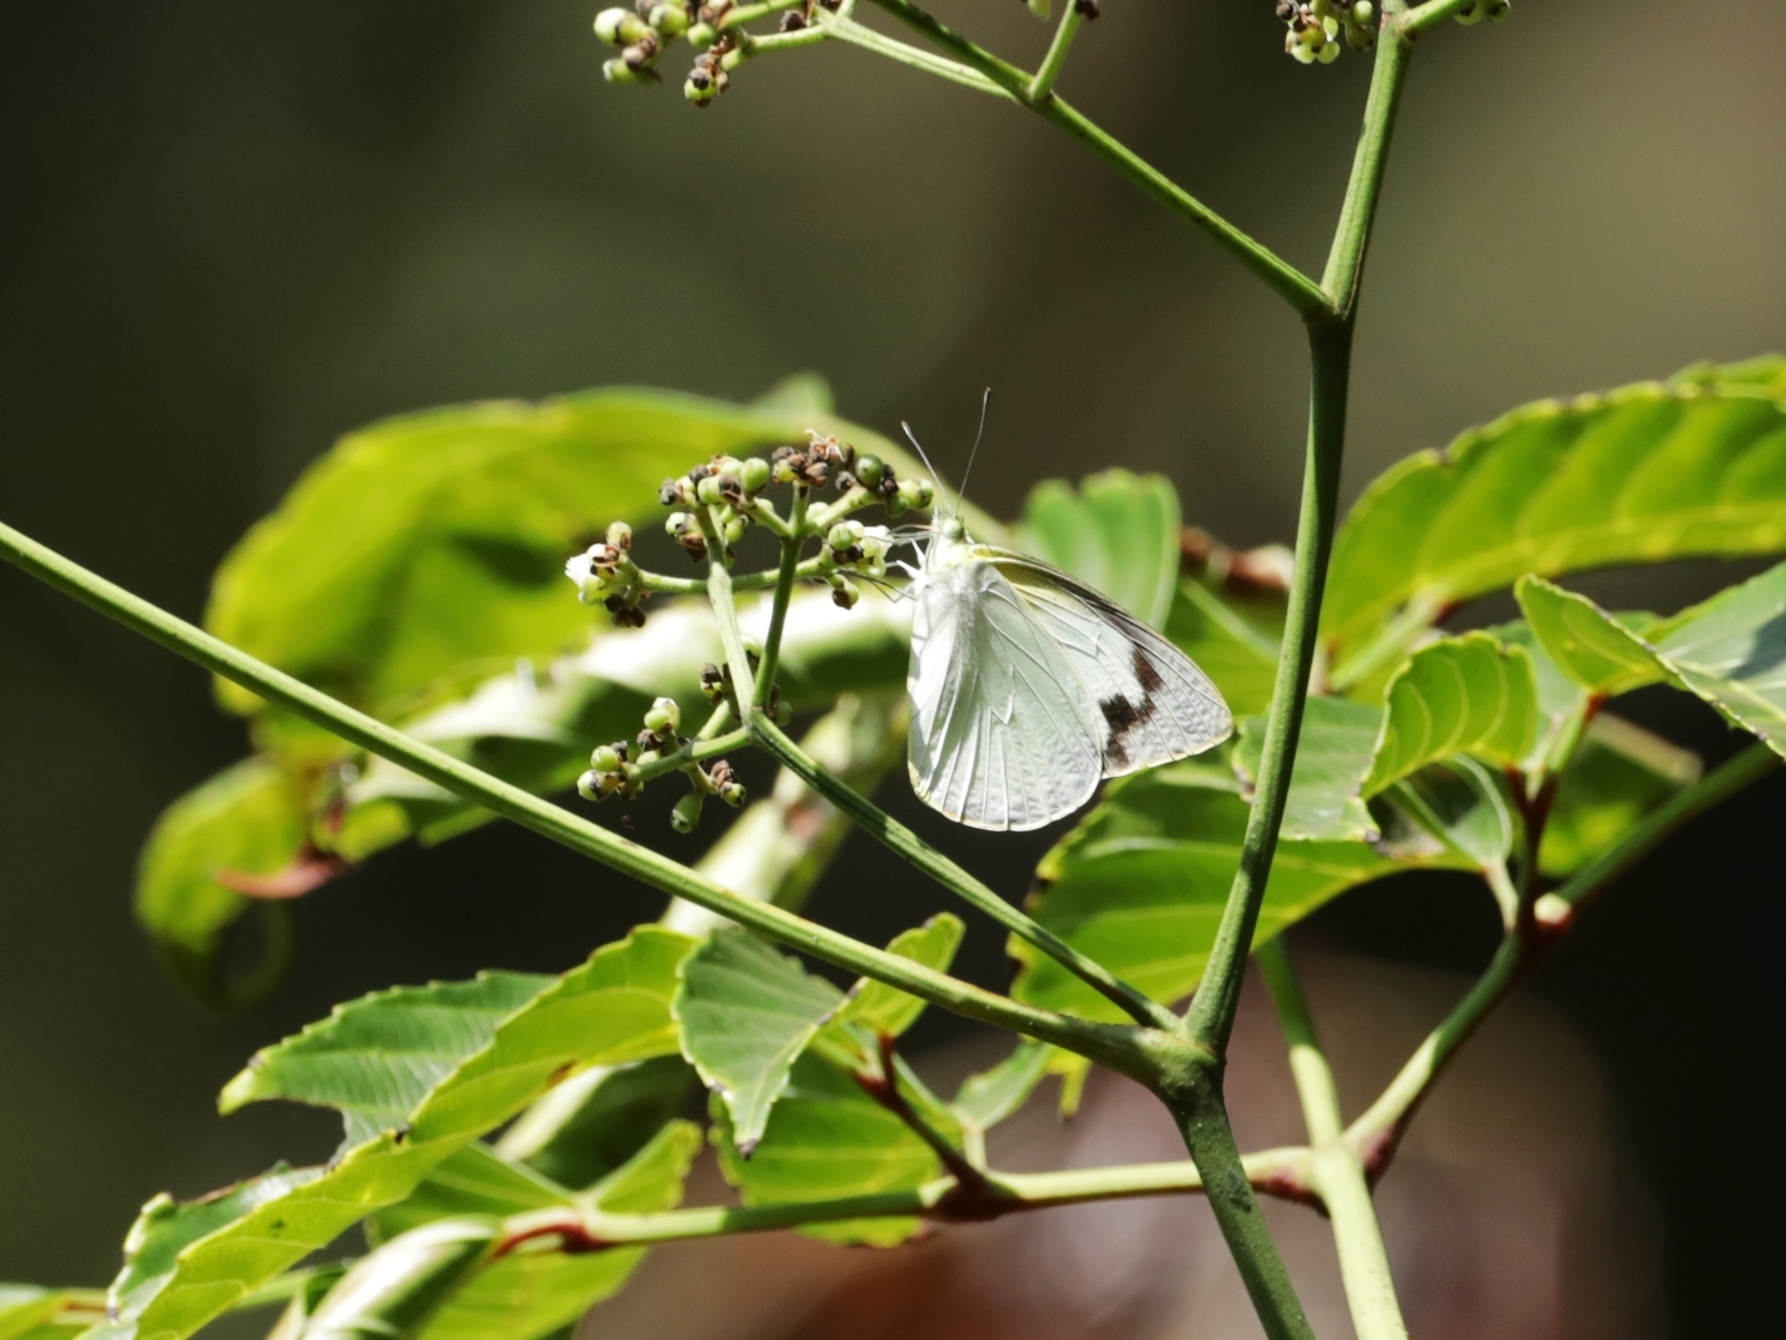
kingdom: Animalia
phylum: Arthropoda
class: Insecta
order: Lepidoptera
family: Pieridae
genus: Appias
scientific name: Appias albina
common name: Common albatross
